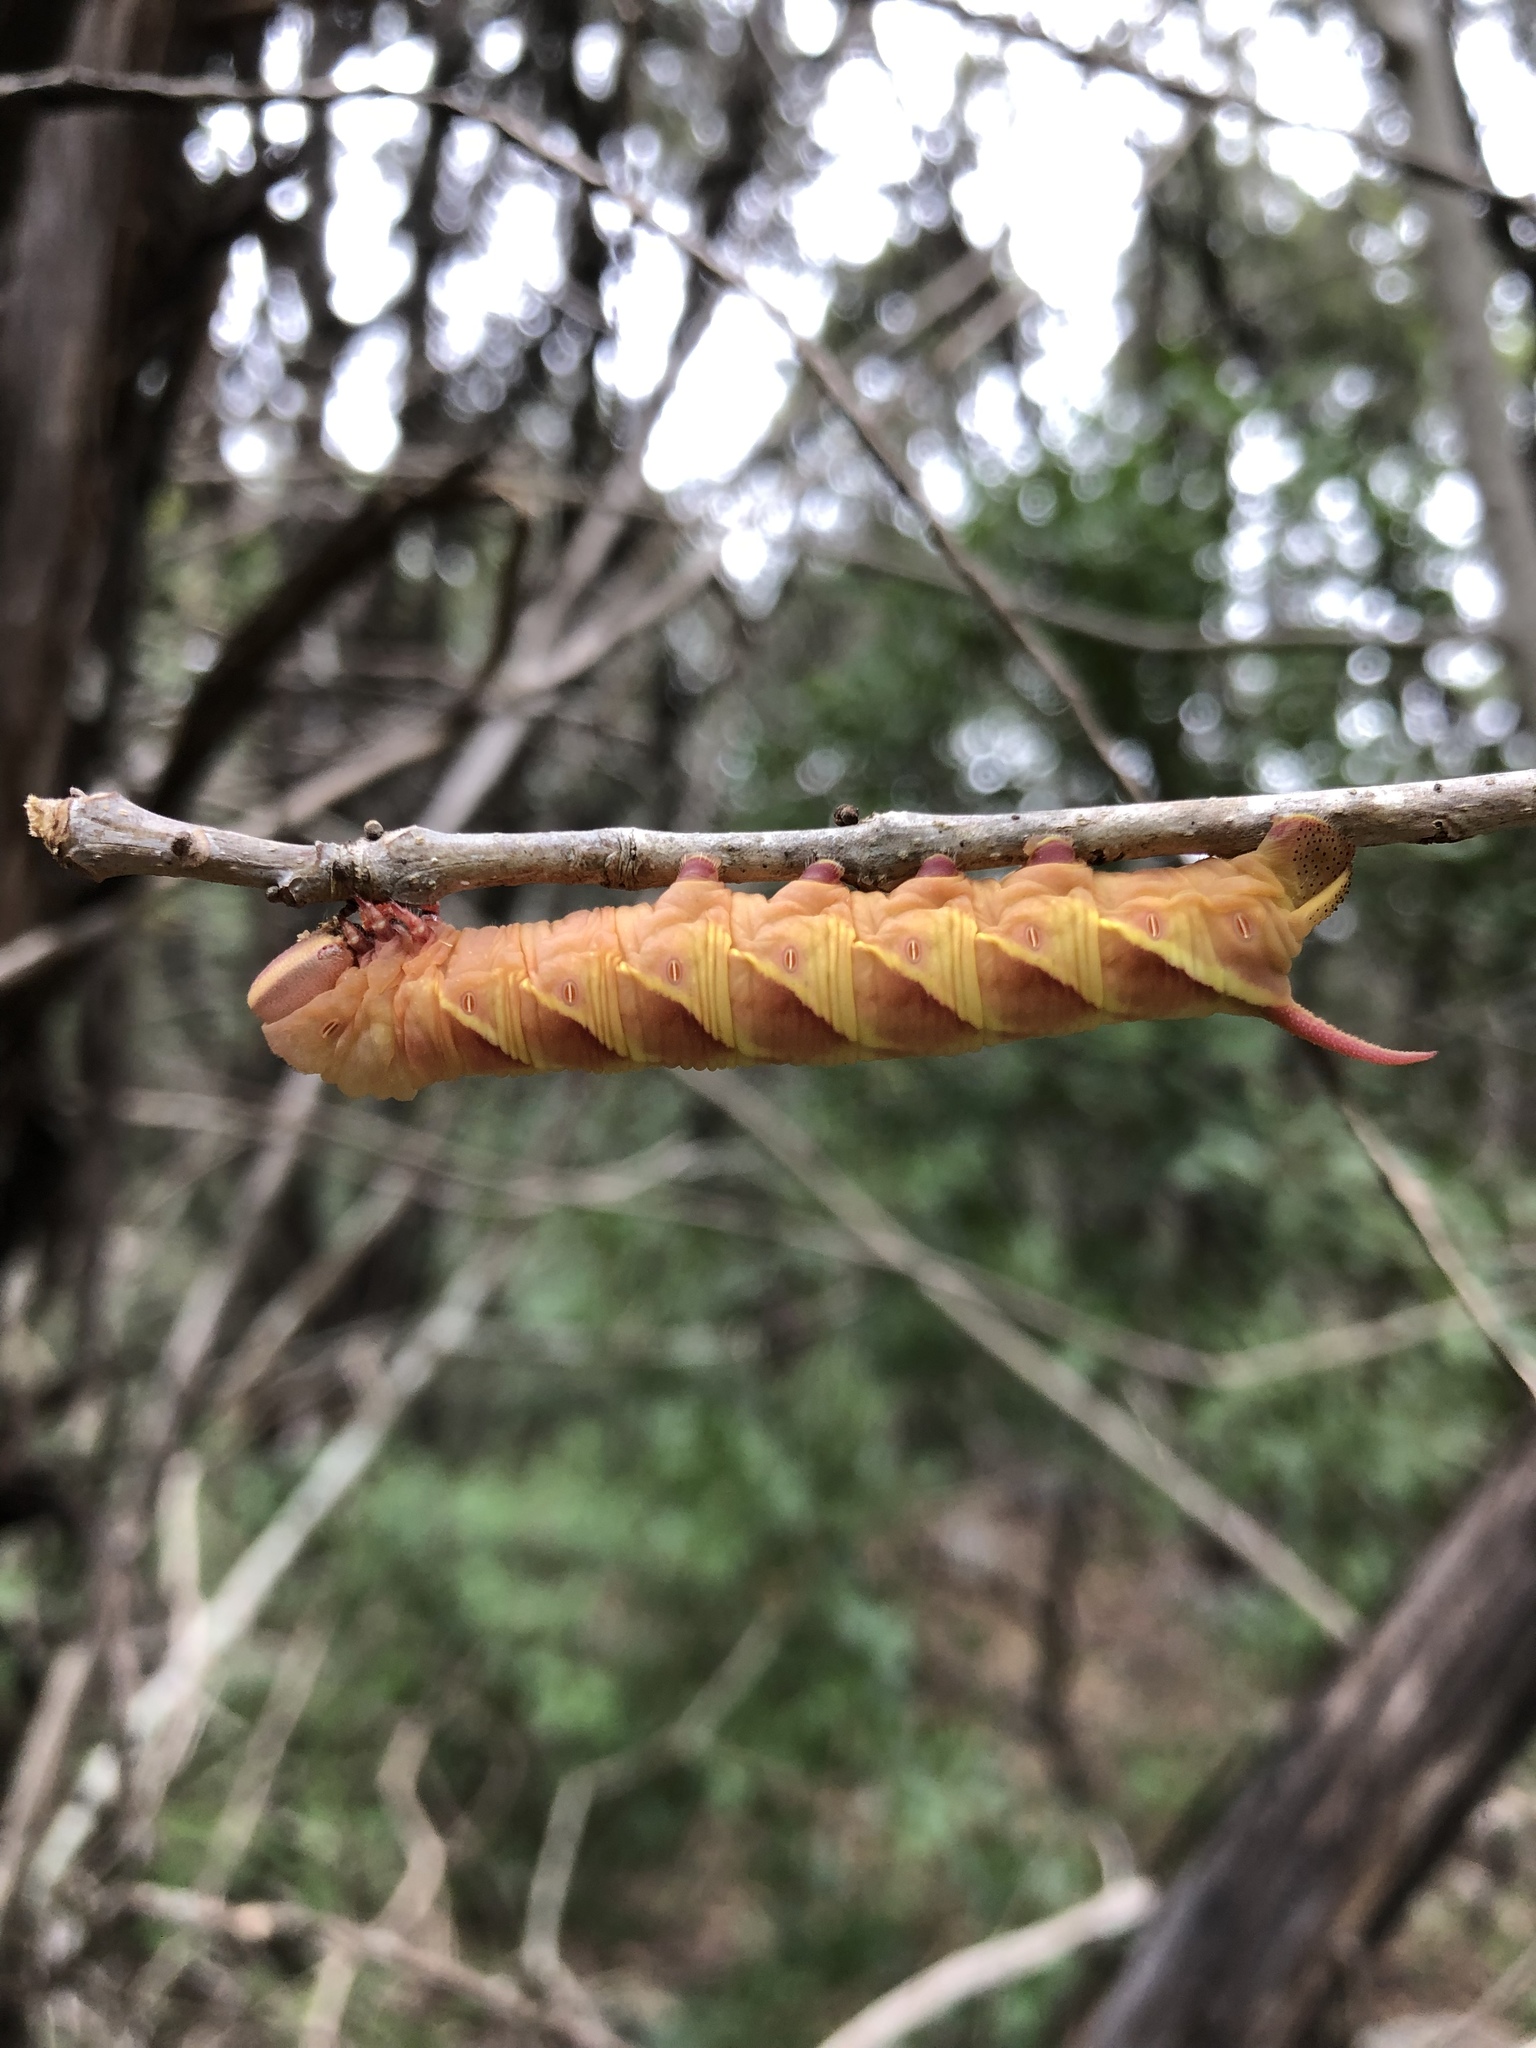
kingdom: Animalia
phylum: Arthropoda
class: Insecta
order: Lepidoptera
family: Sphingidae
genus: Ceratomia
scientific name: Ceratomia undulosa
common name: Waved sphinx
